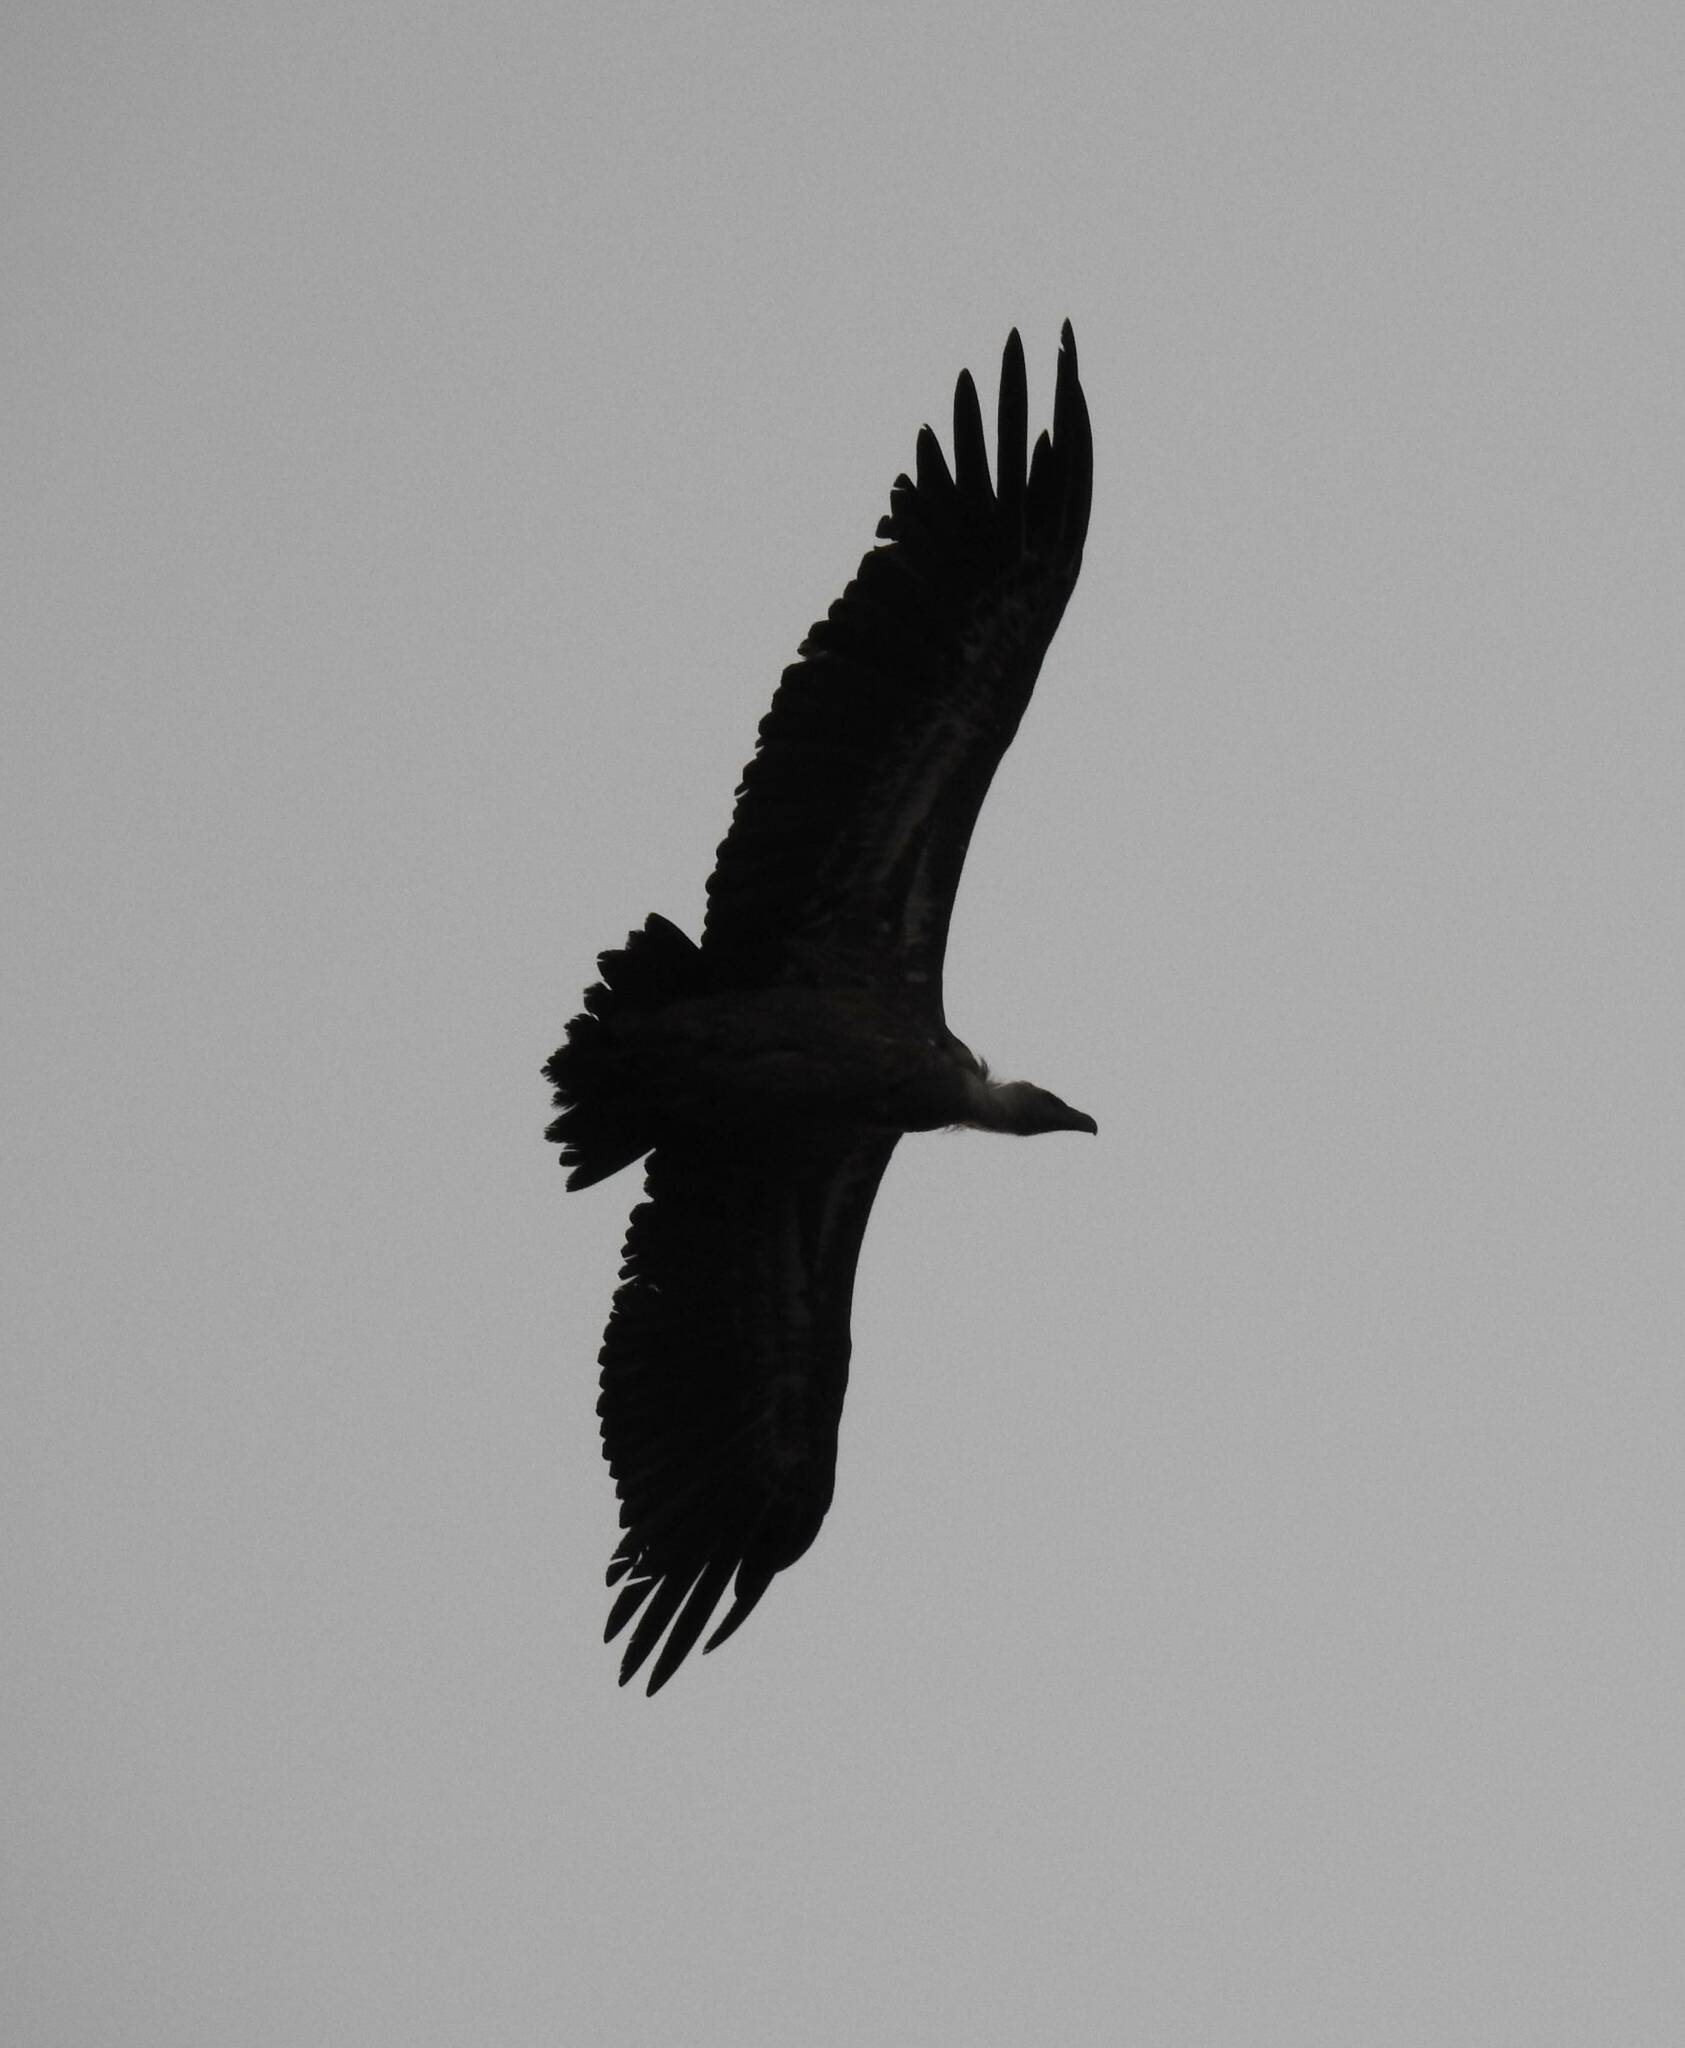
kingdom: Animalia
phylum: Chordata
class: Aves
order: Accipitriformes
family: Accipitridae
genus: Gyps
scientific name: Gyps fulvus
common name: Griffon vulture
